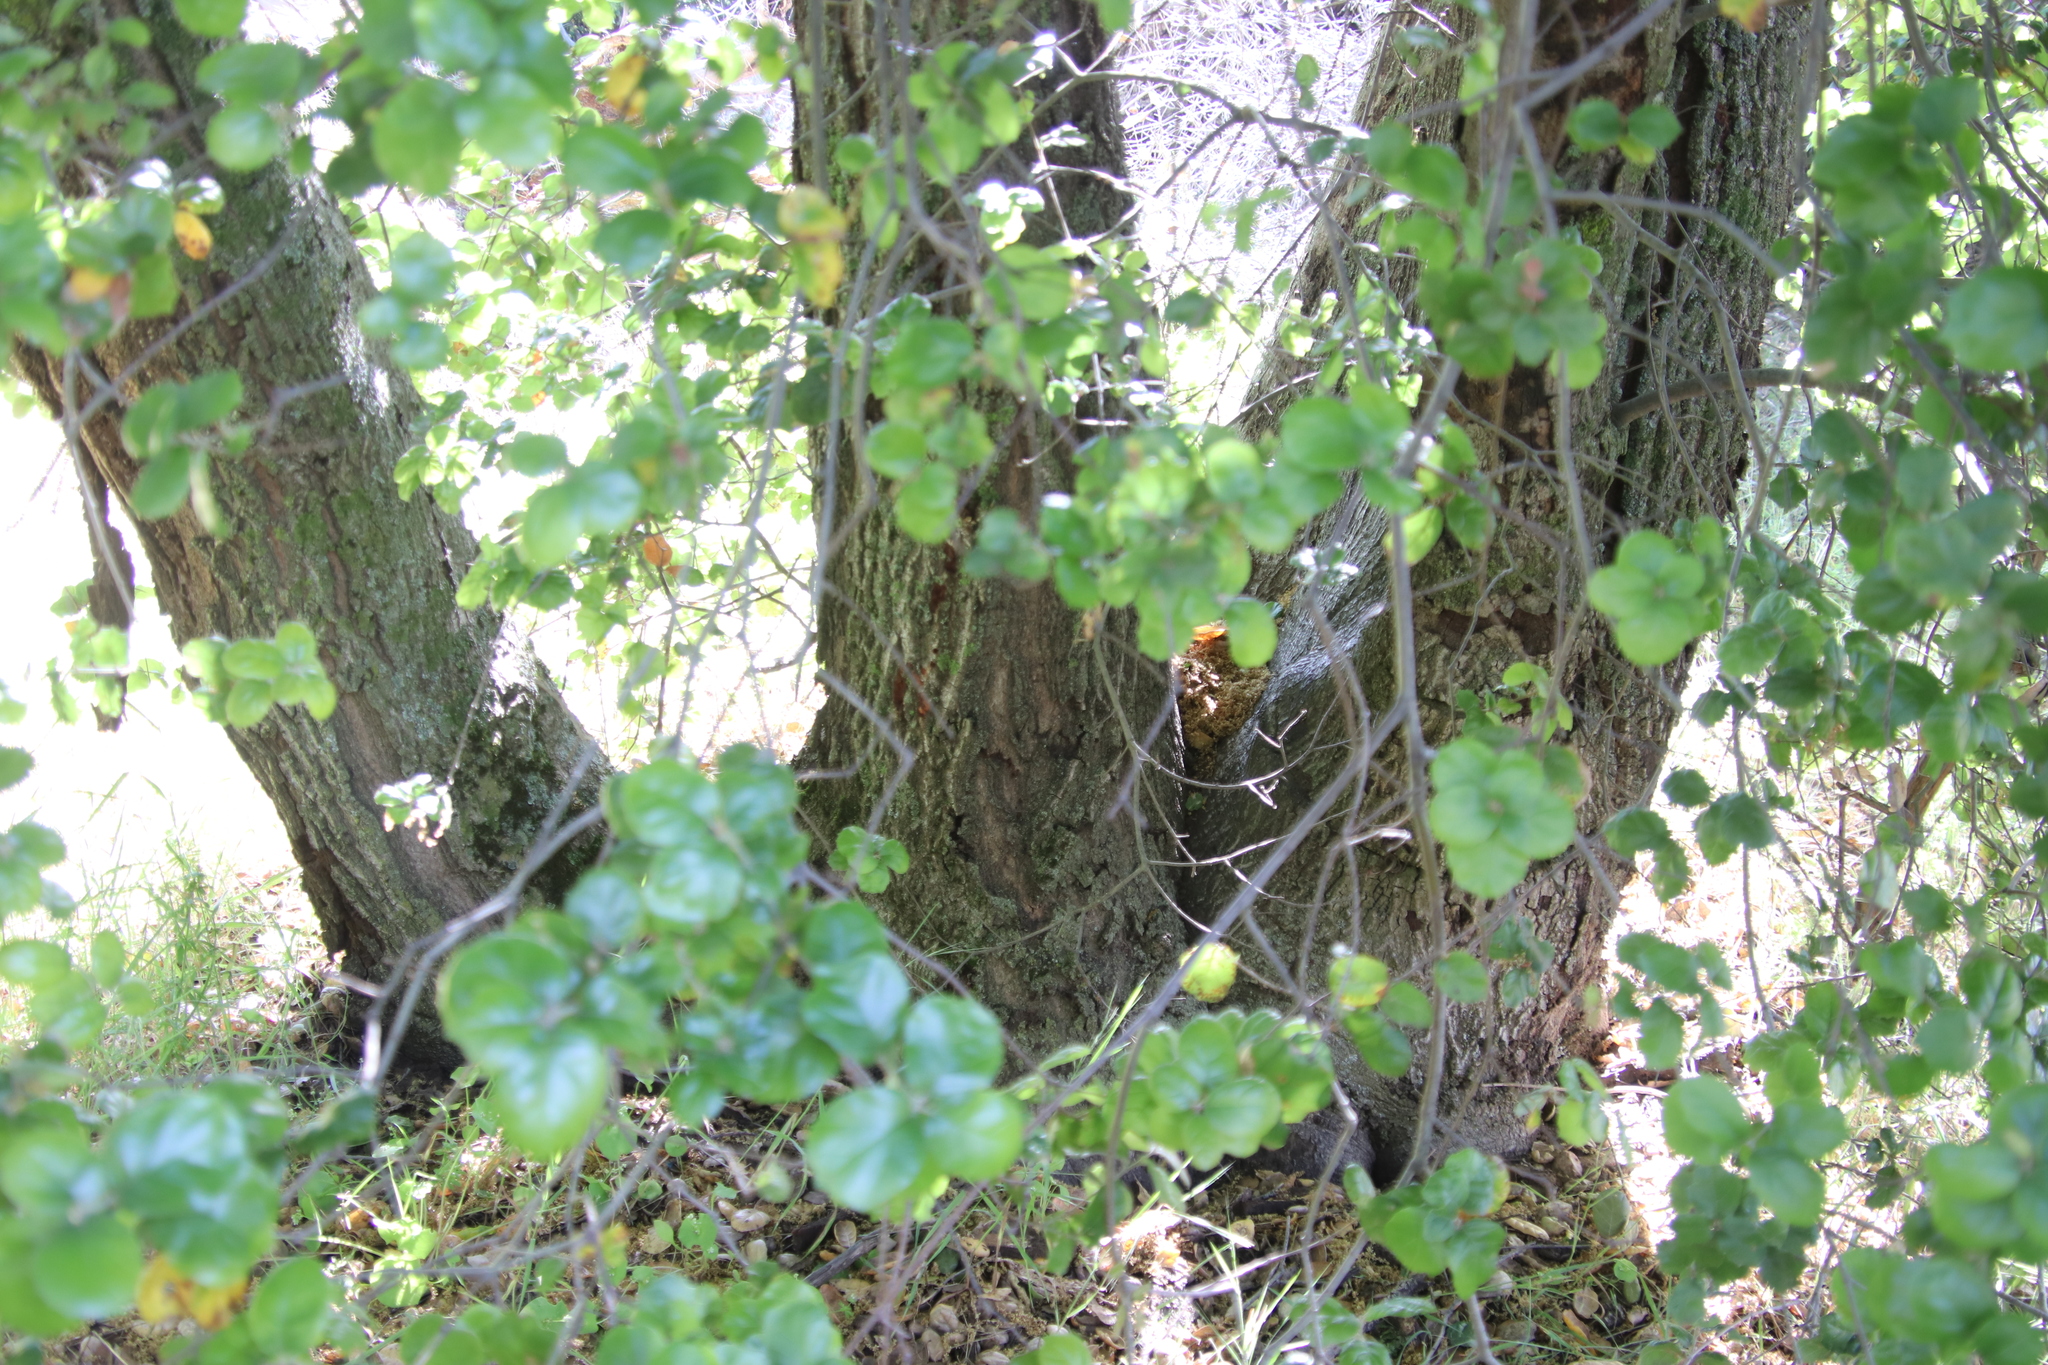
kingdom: Plantae
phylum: Tracheophyta
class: Magnoliopsida
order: Fagales
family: Fagaceae
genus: Quercus
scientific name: Quercus agrifolia
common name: California live oak
